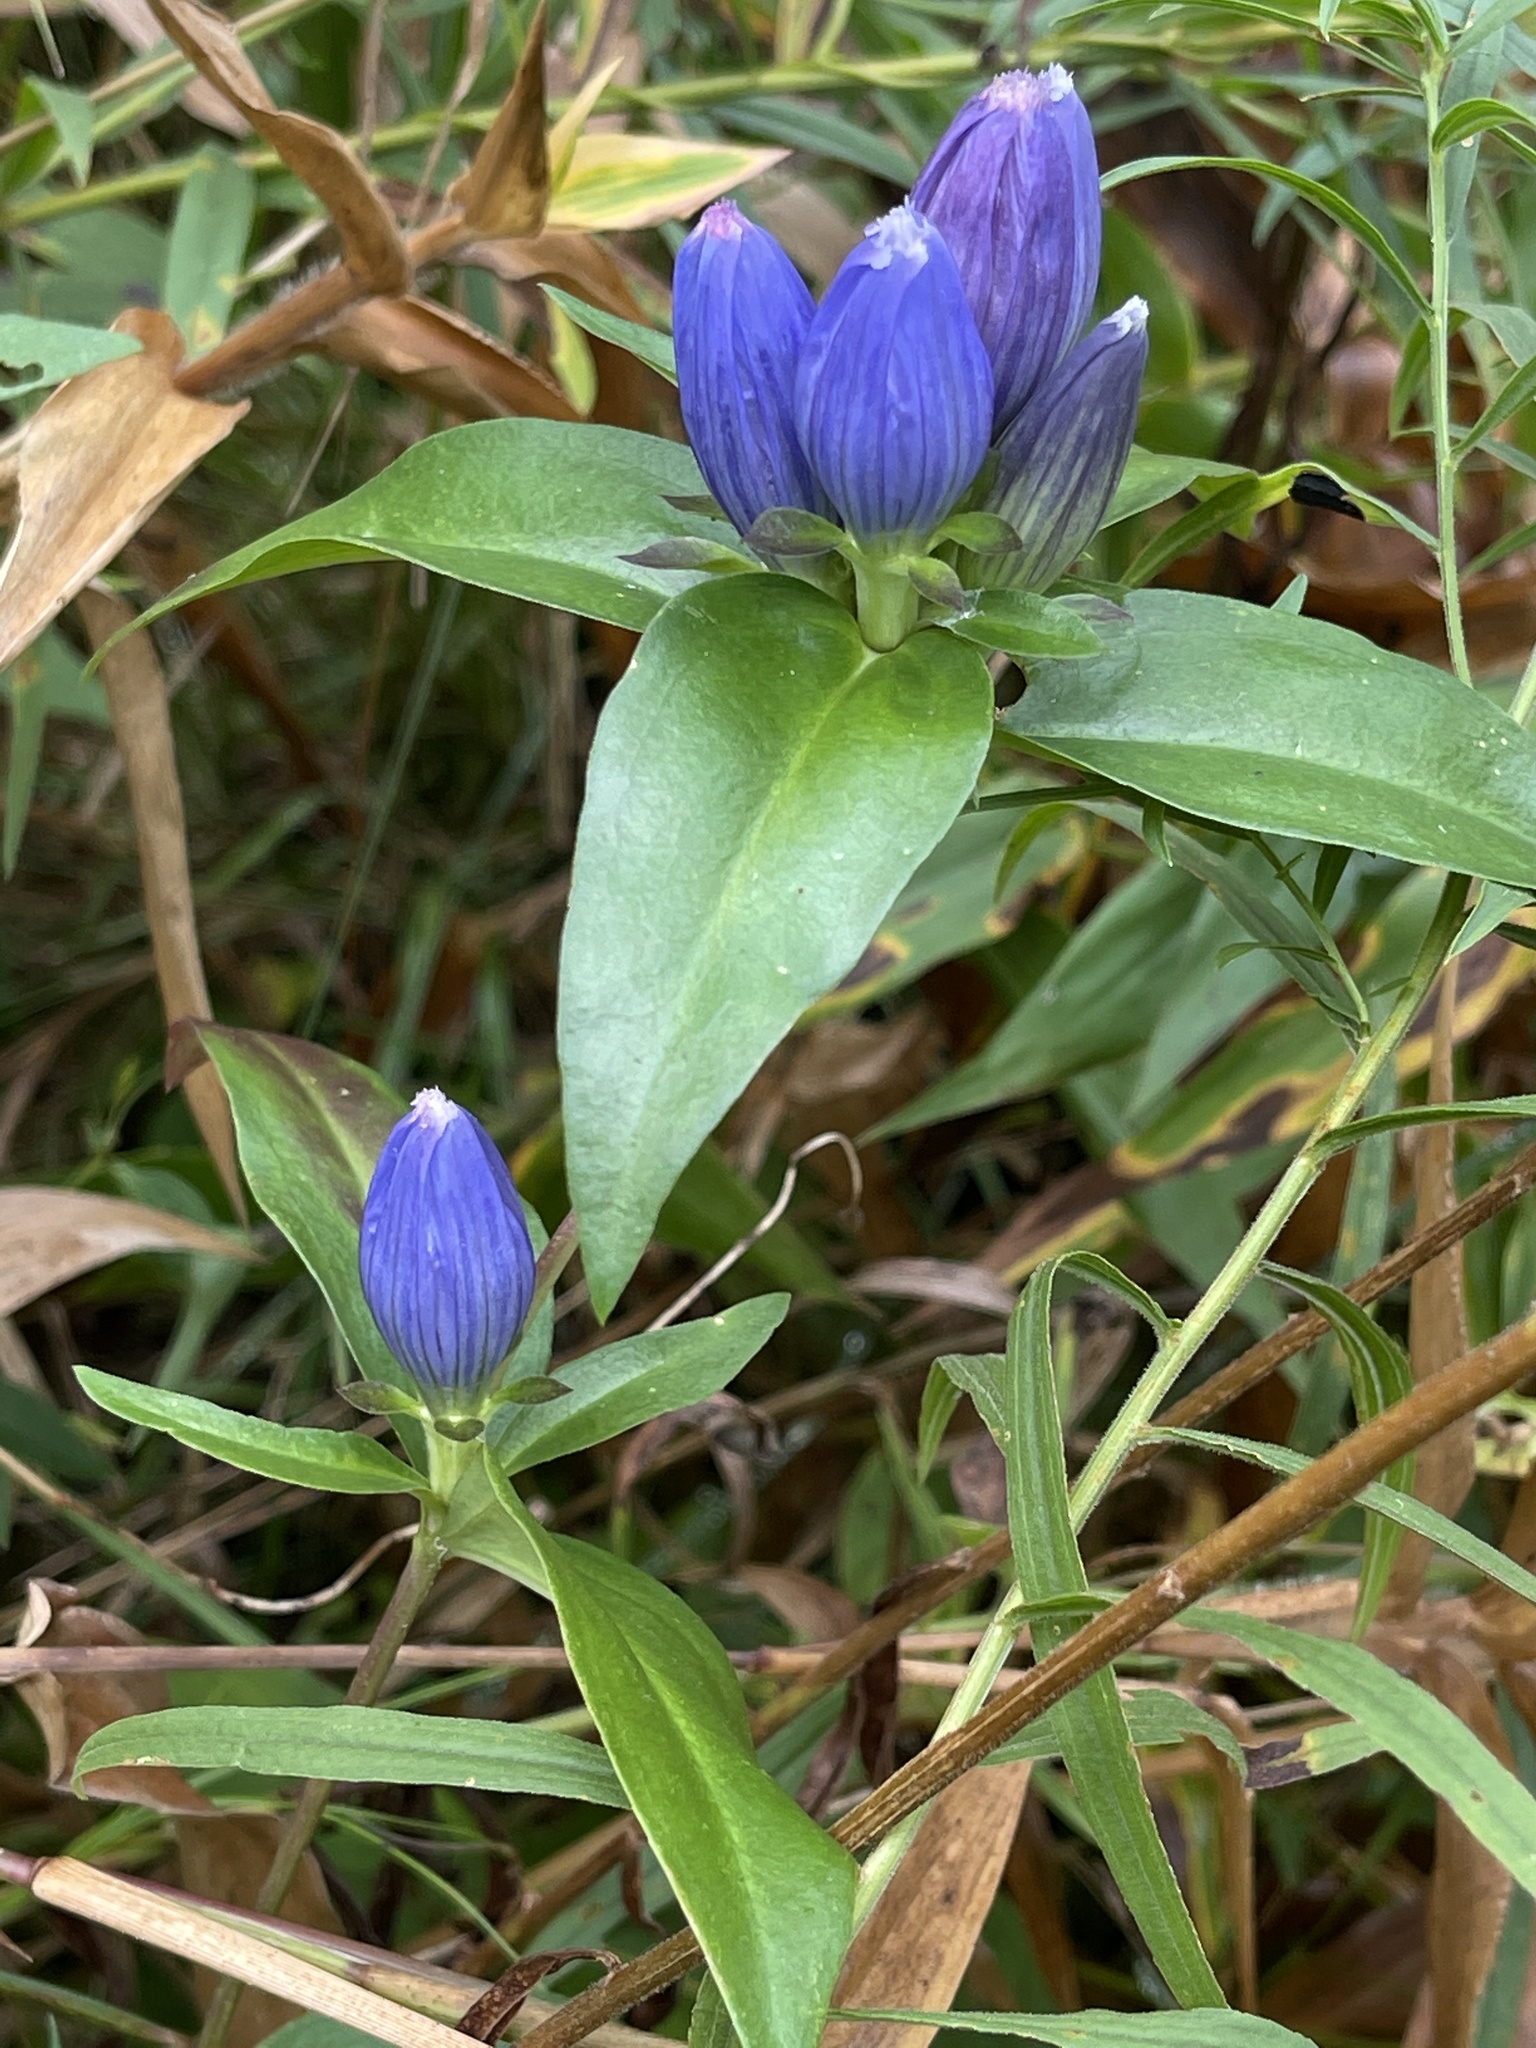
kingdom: Plantae
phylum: Tracheophyta
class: Magnoliopsida
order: Gentianales
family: Gentianaceae
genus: Gentiana
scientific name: Gentiana andrewsii
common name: Bottle gentian
